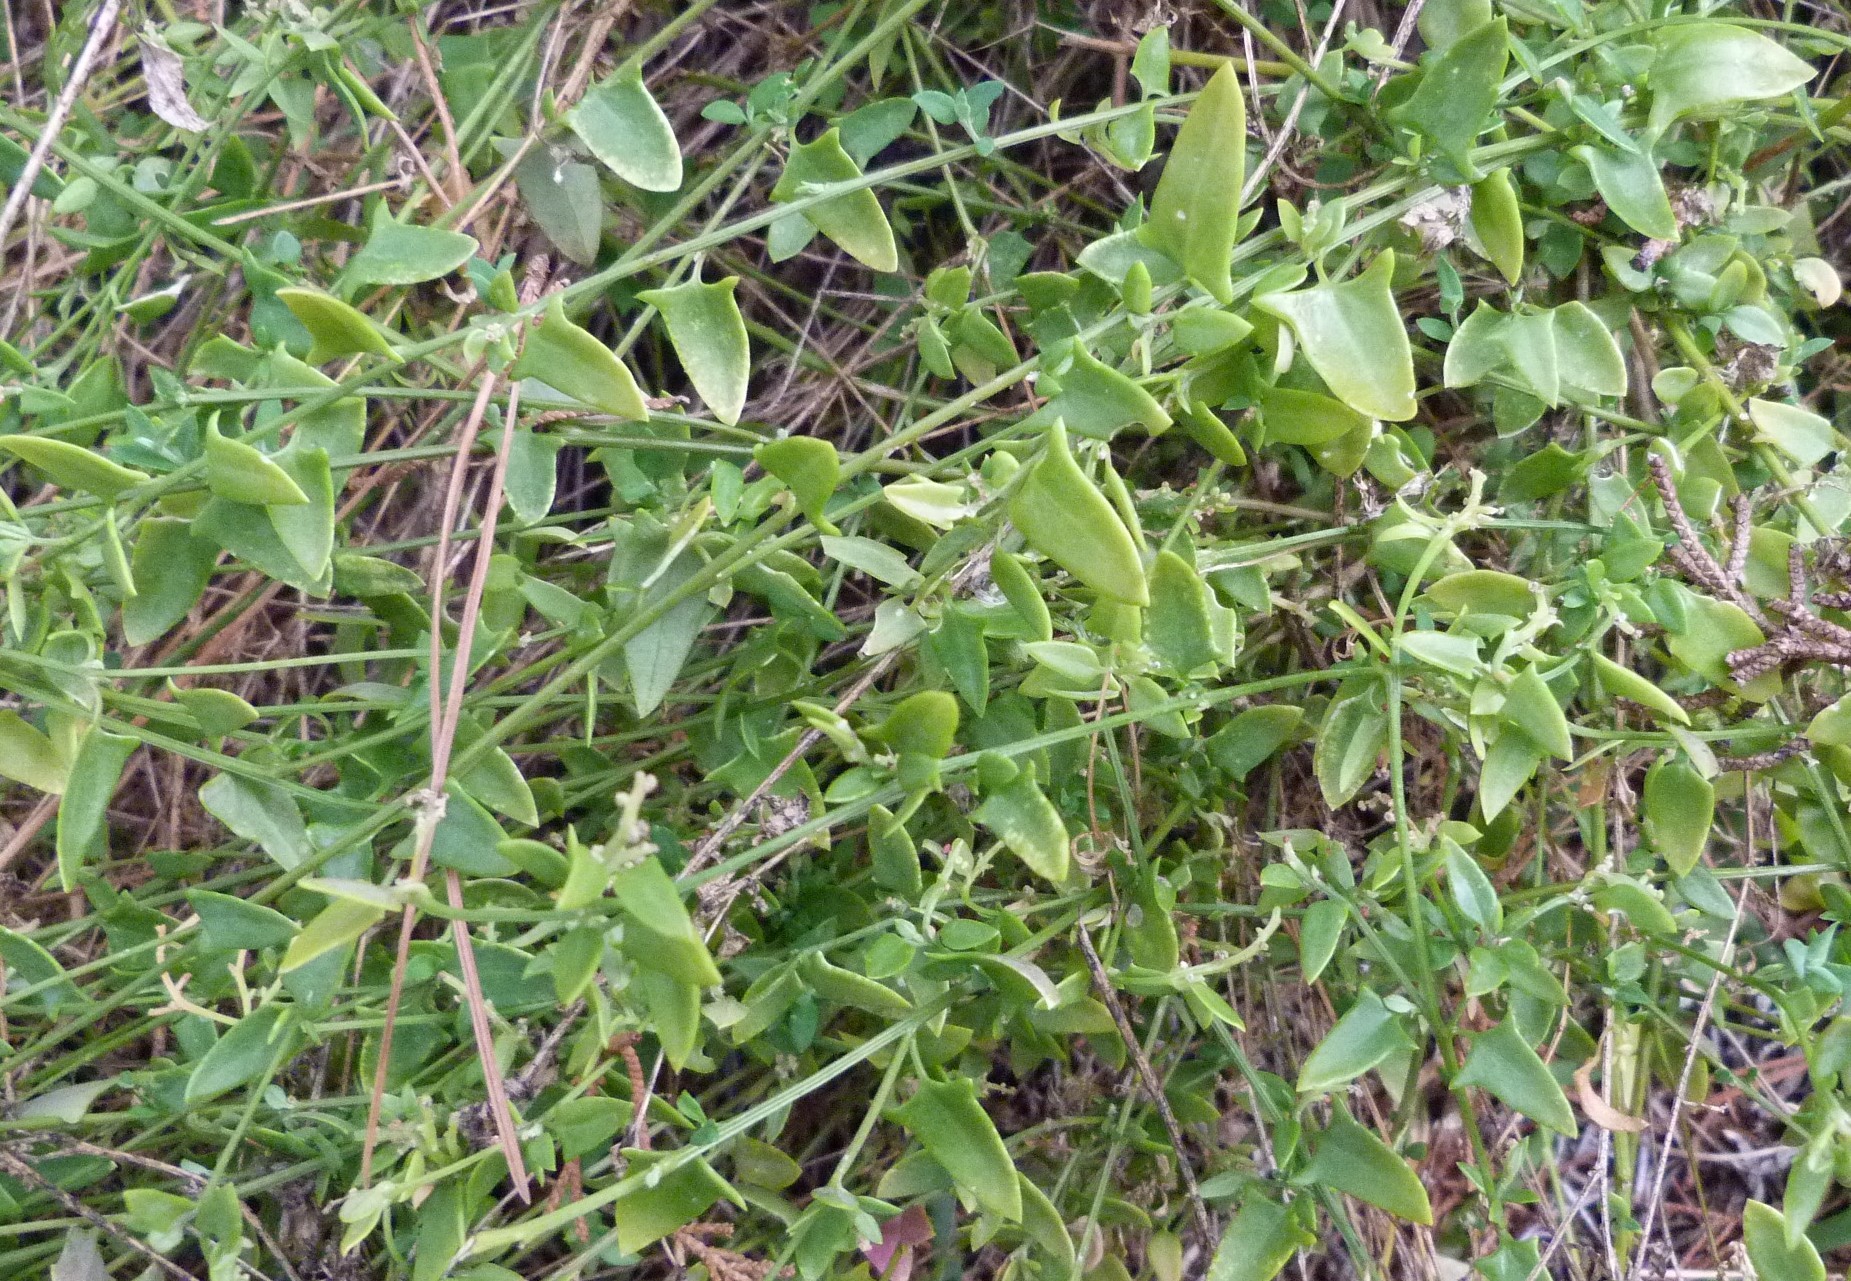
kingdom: Plantae
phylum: Tracheophyta
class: Magnoliopsida
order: Caryophyllales
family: Amaranthaceae
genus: Chenopodium
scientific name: Chenopodium nutans
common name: Climbing-saltbush
